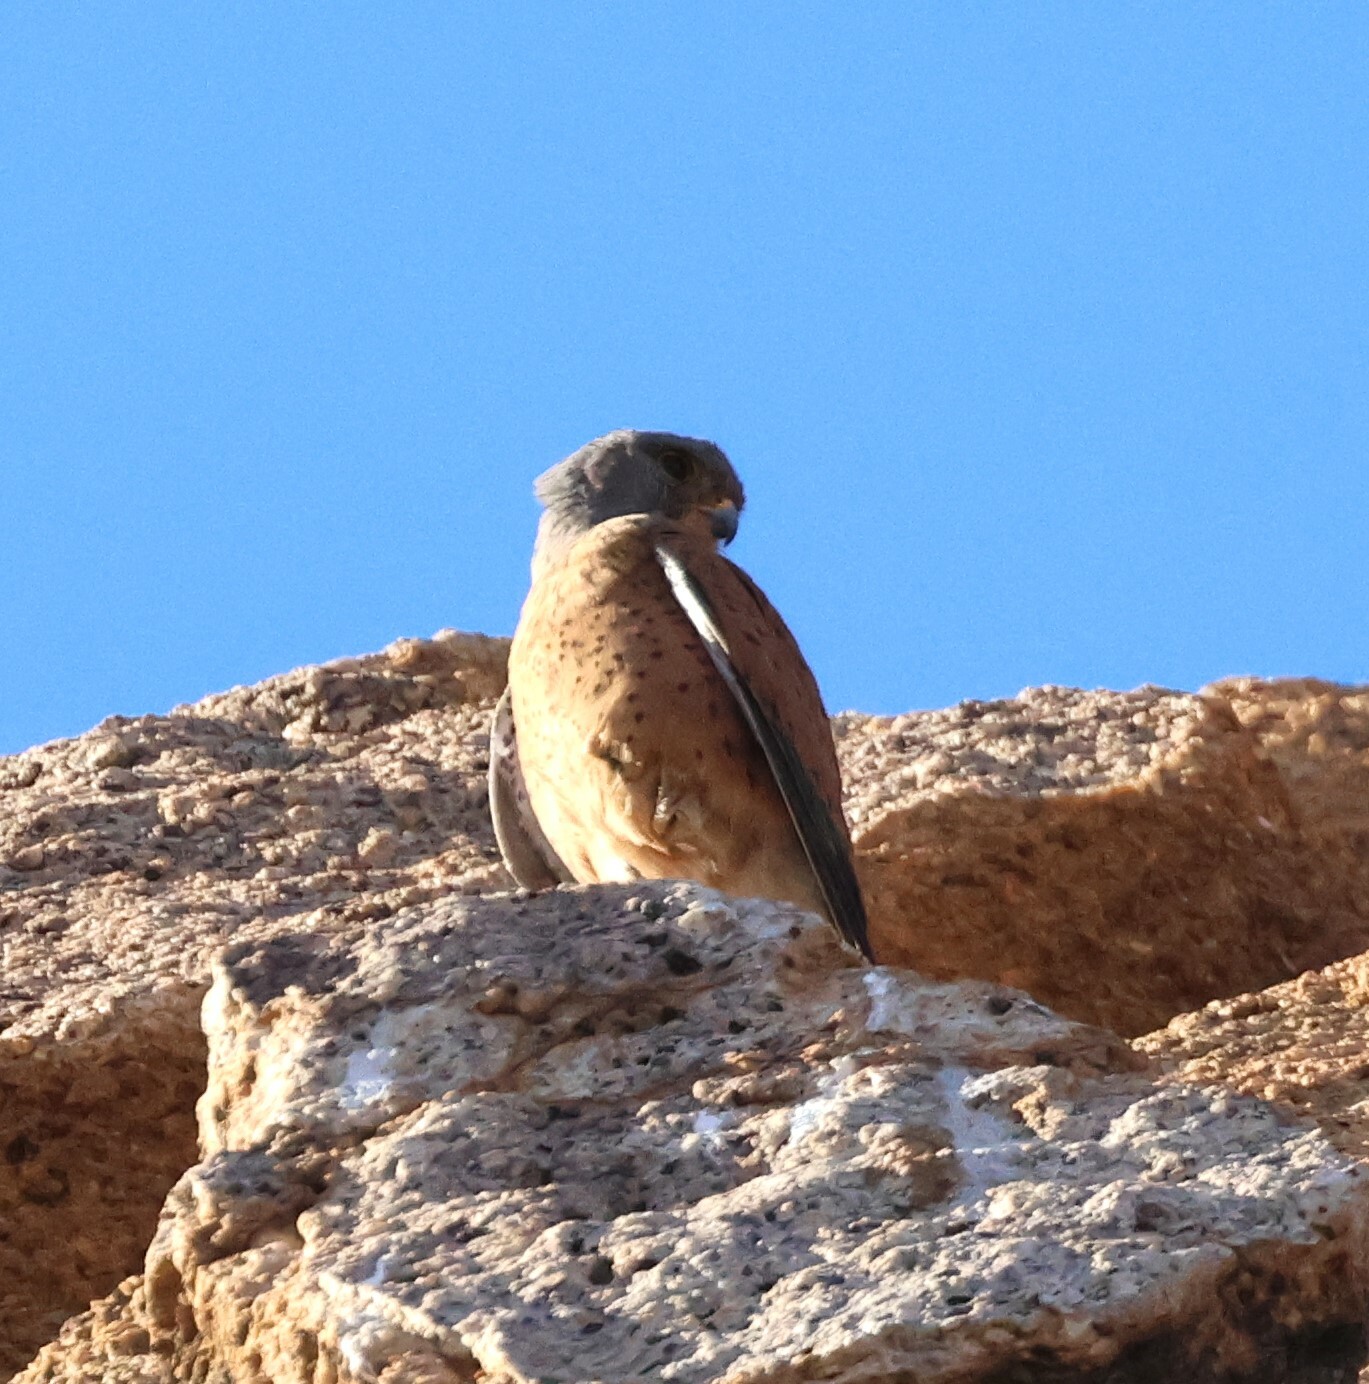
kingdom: Animalia
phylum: Chordata
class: Aves
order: Falconiformes
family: Falconidae
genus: Falco
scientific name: Falco rupicolus
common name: Rock kestrel
